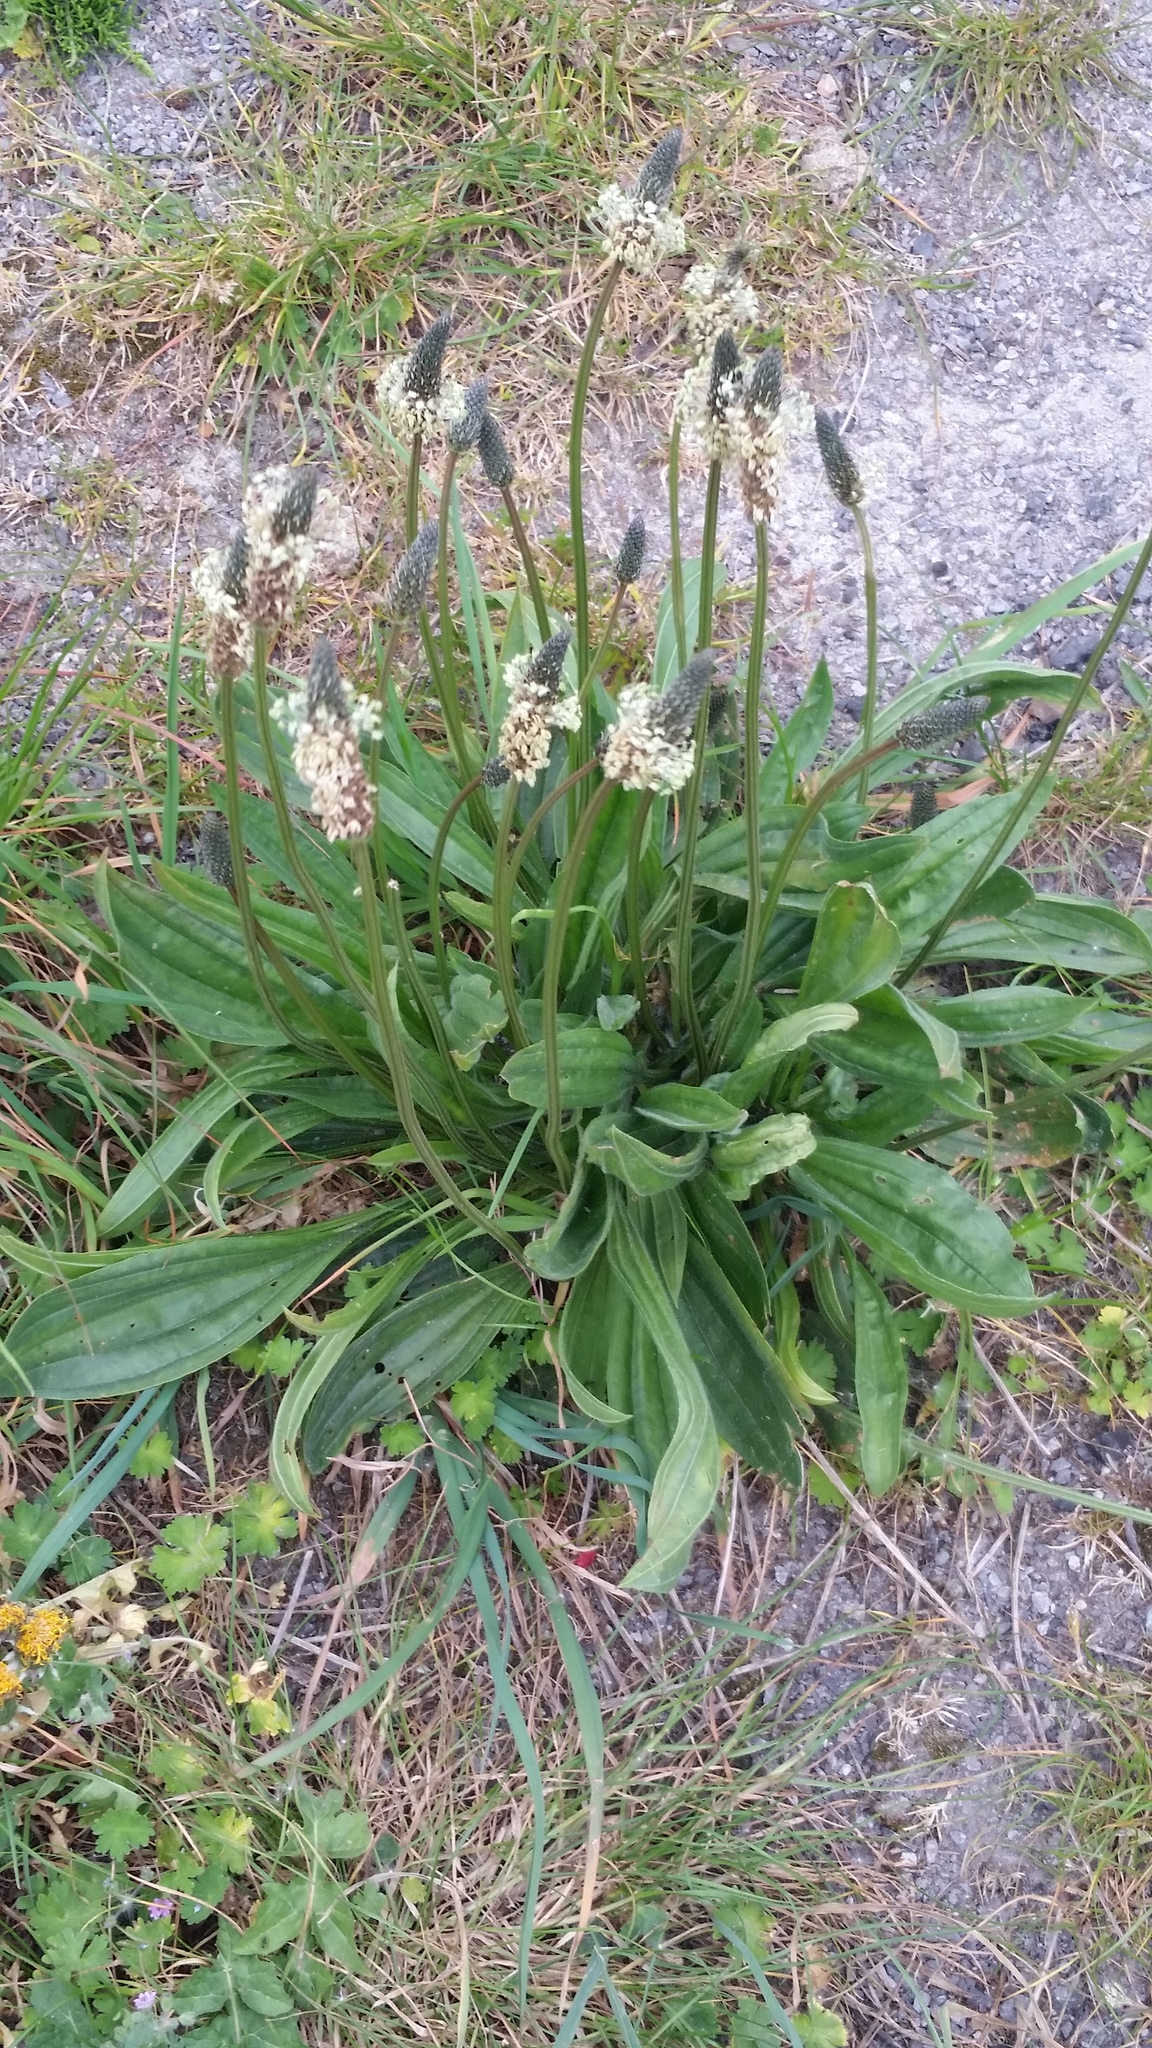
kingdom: Plantae
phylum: Tracheophyta
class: Magnoliopsida
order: Lamiales
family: Plantaginaceae
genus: Plantago
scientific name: Plantago lanceolata
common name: Ribwort plantain
